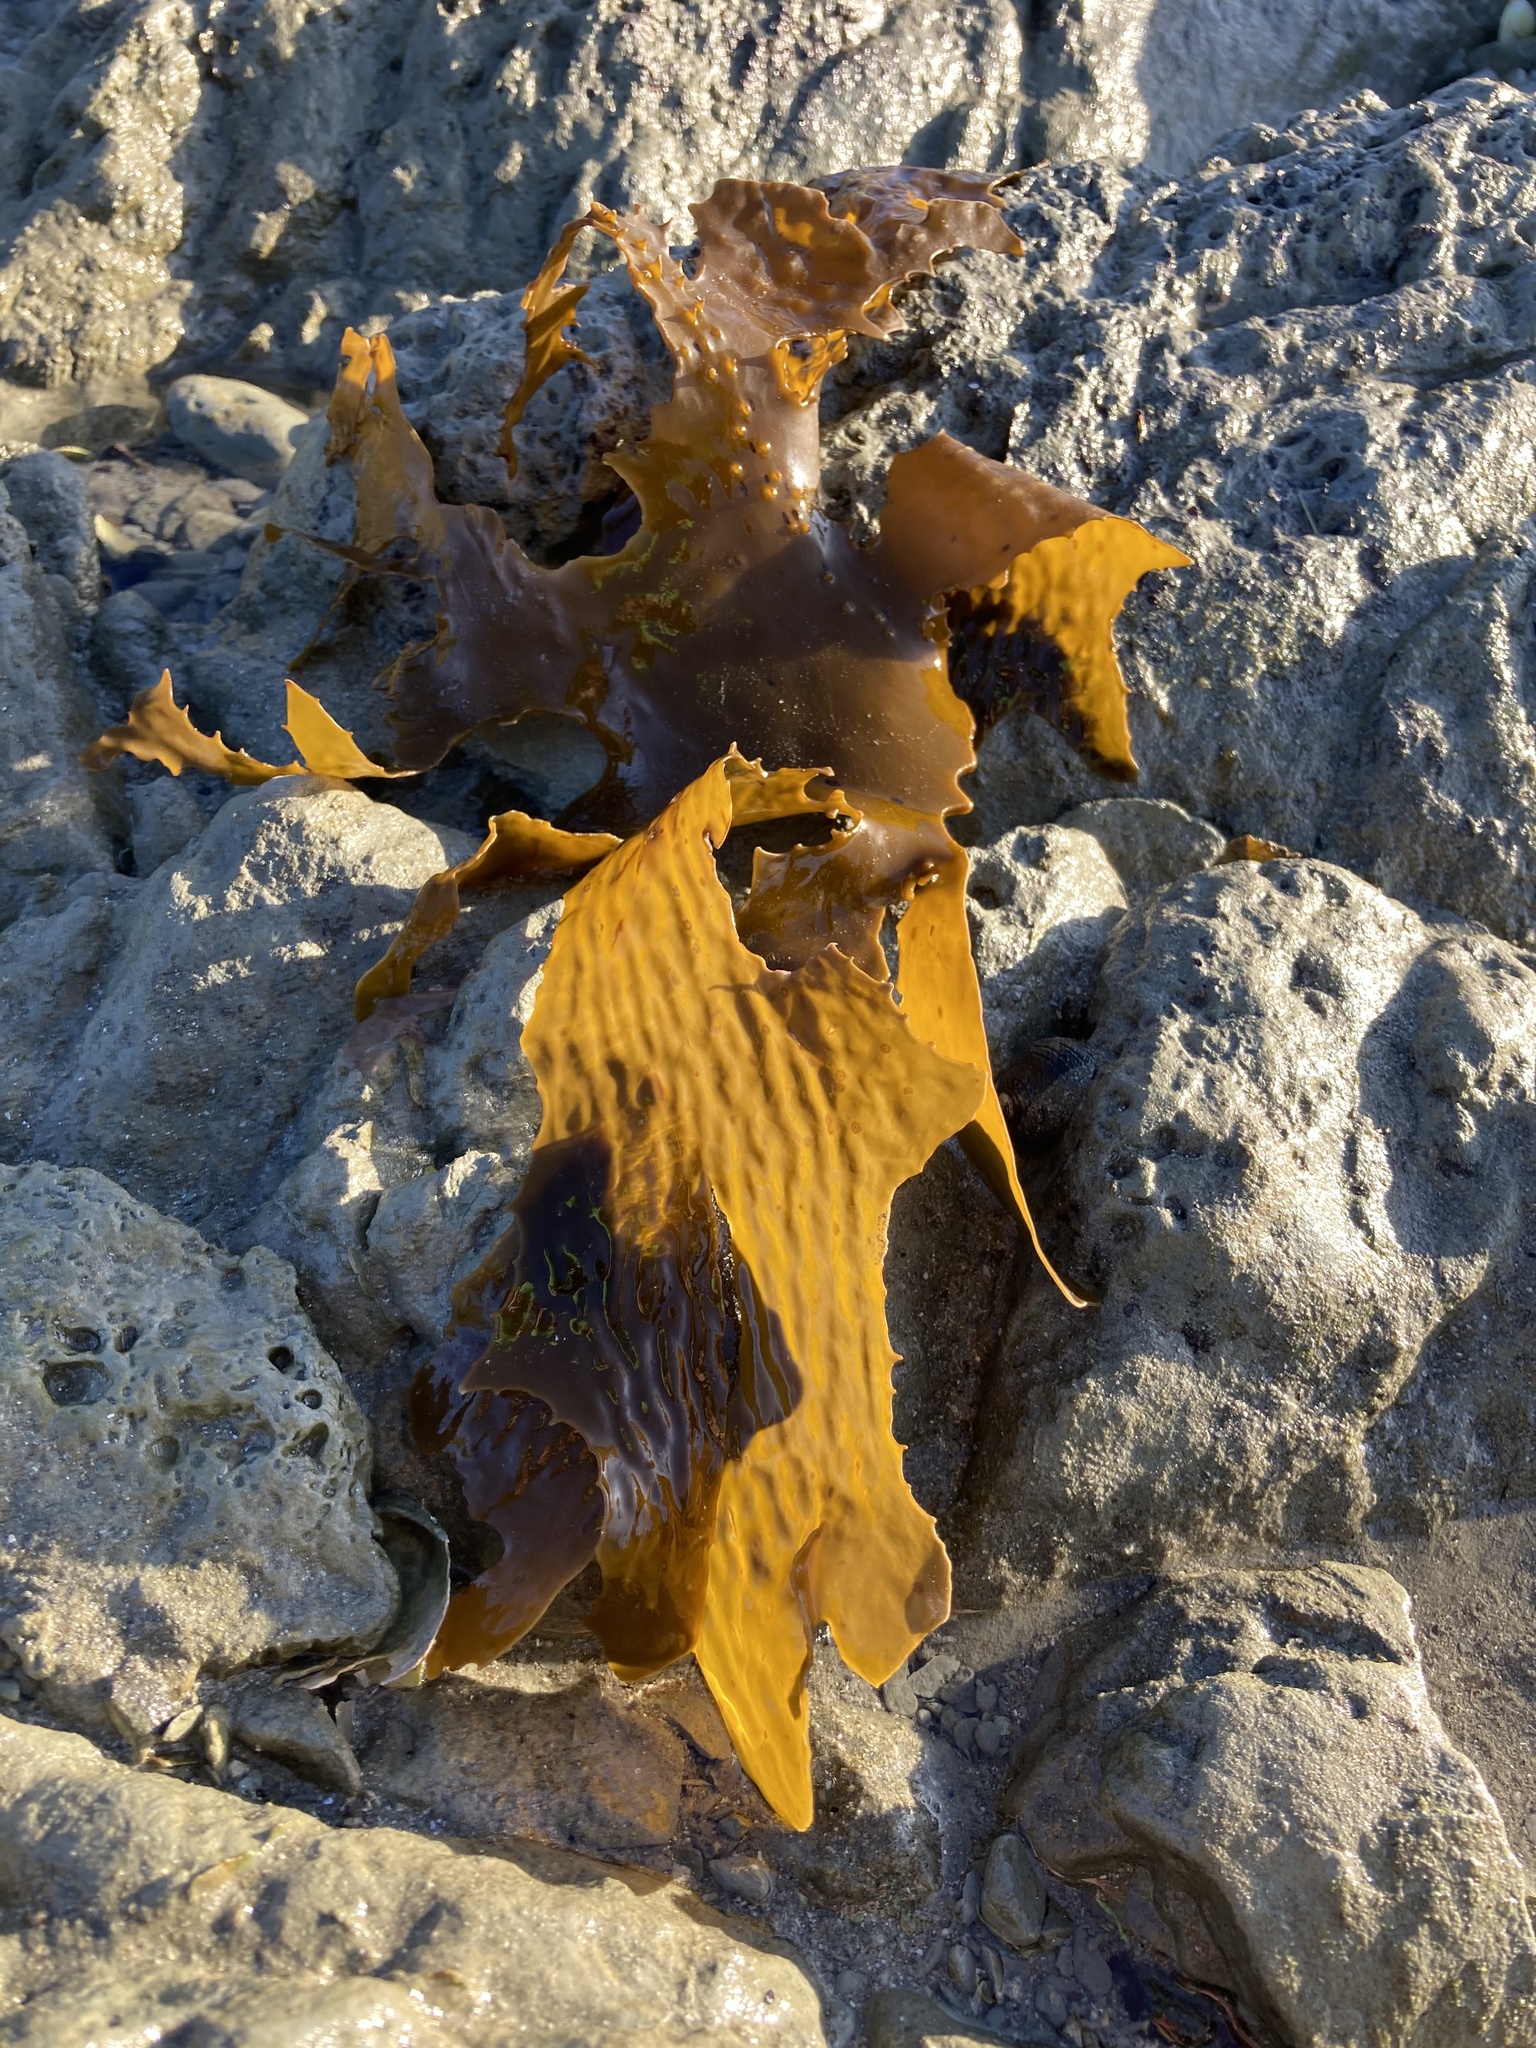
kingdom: Chromista
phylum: Ochrophyta
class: Phaeophyceae
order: Laminariales
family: Lessoniaceae
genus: Ecklonia
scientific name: Ecklonia radiata
